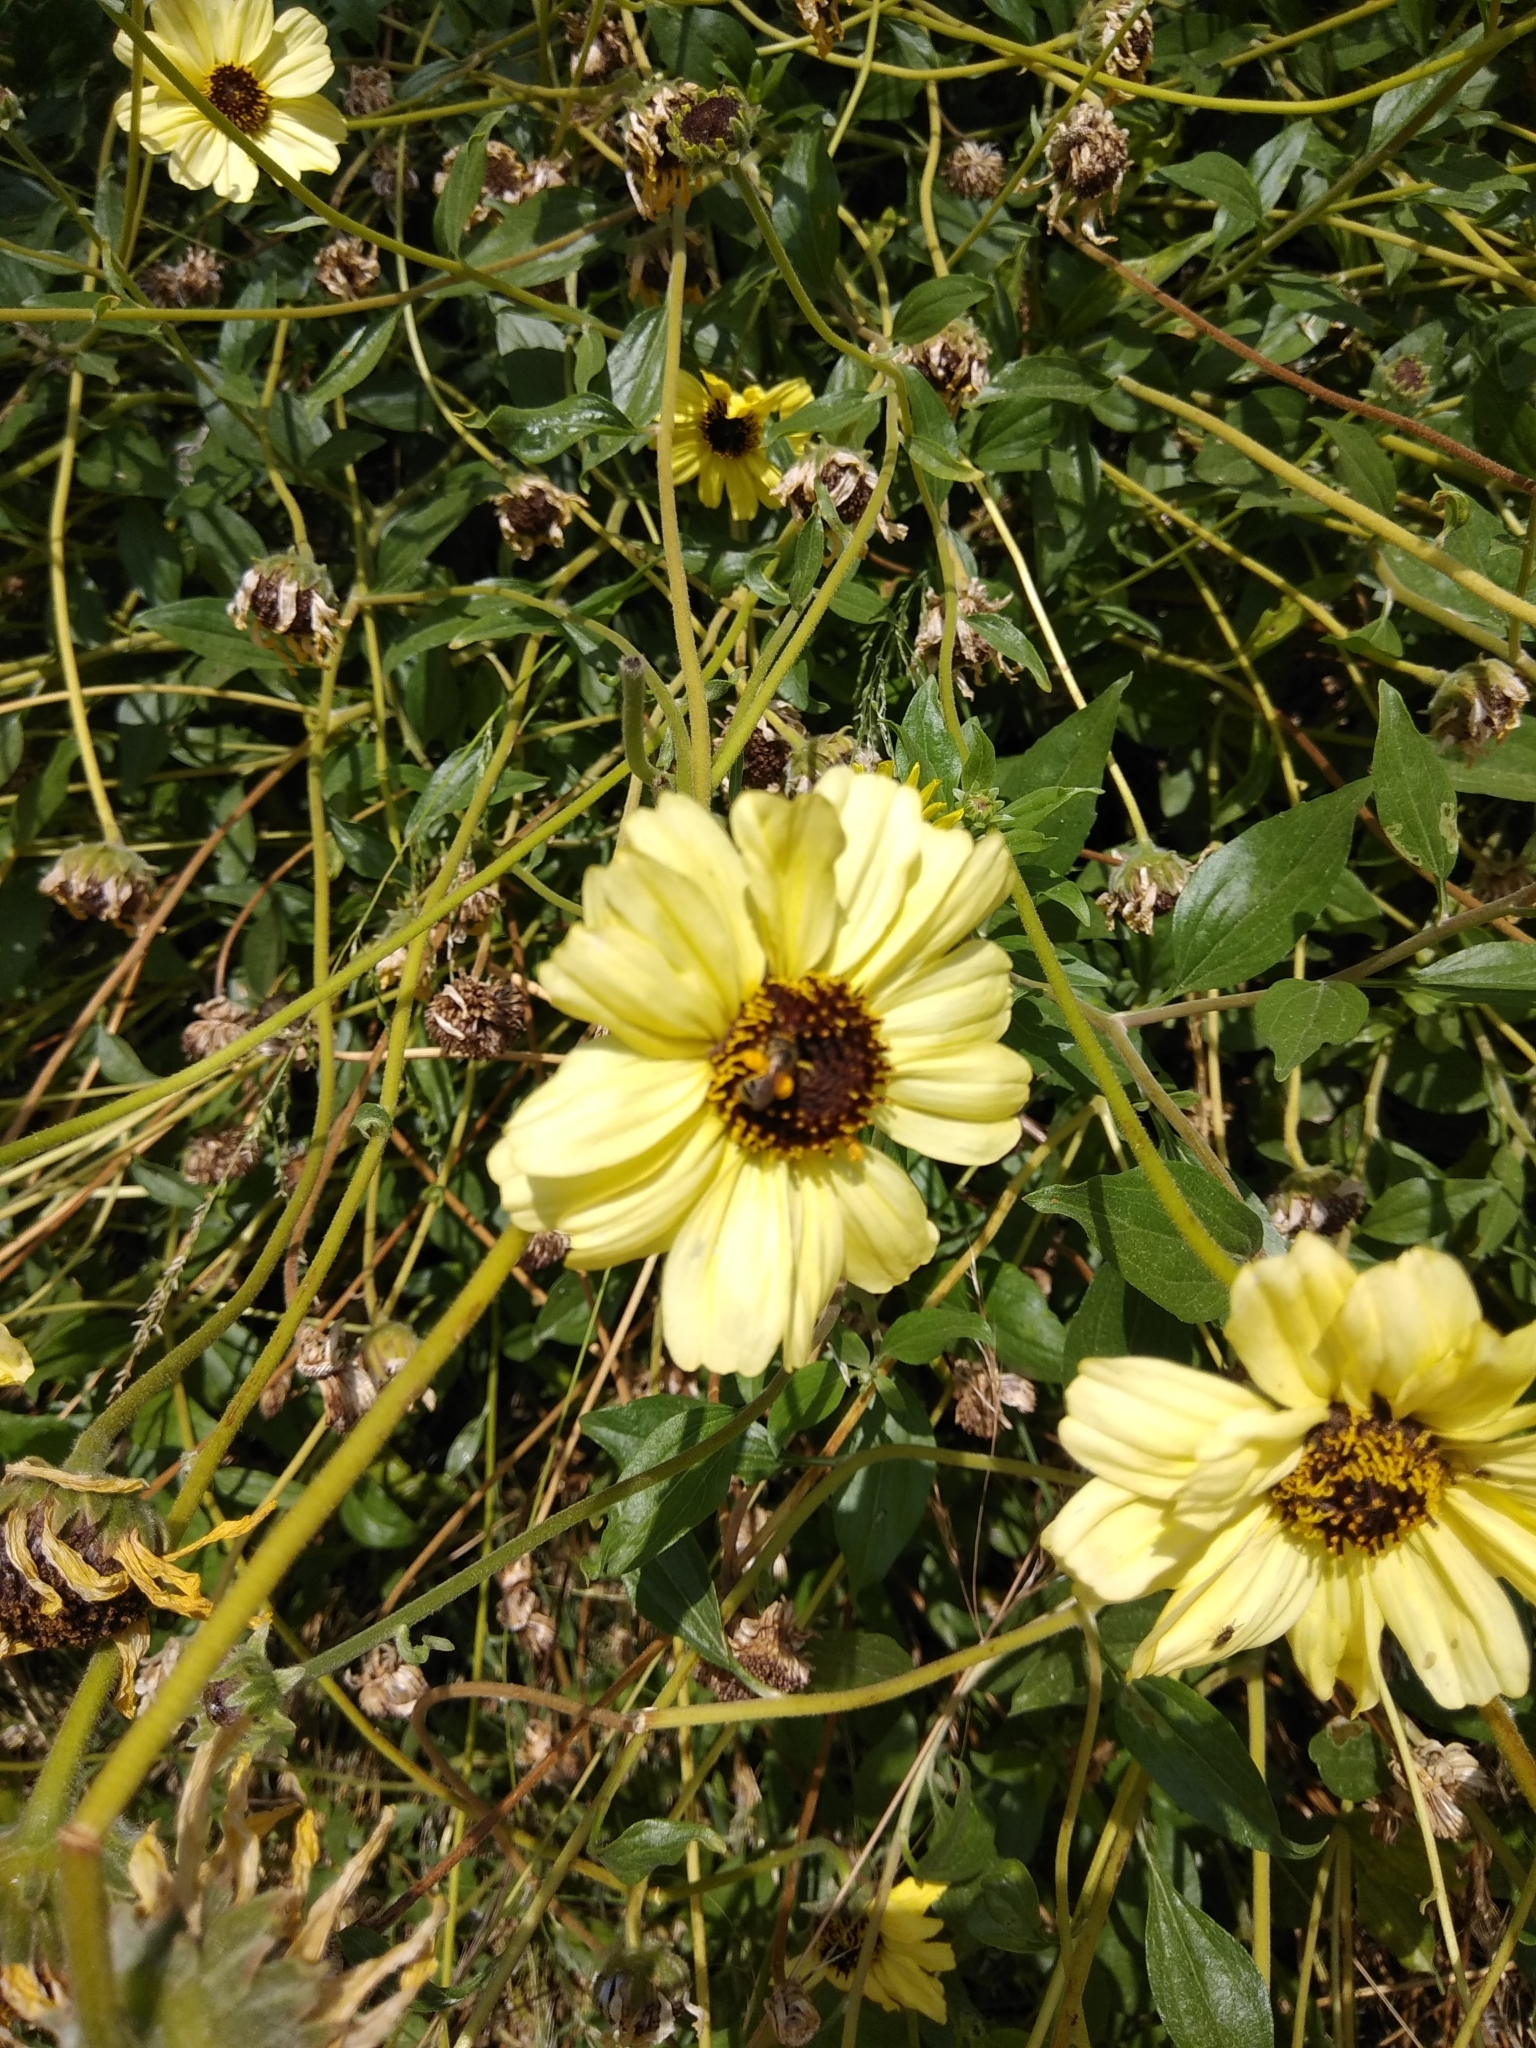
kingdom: Animalia
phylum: Arthropoda
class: Insecta
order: Hymenoptera
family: Halictidae
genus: Halictus
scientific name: Halictus ligatus
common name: Ligated furrow bee
